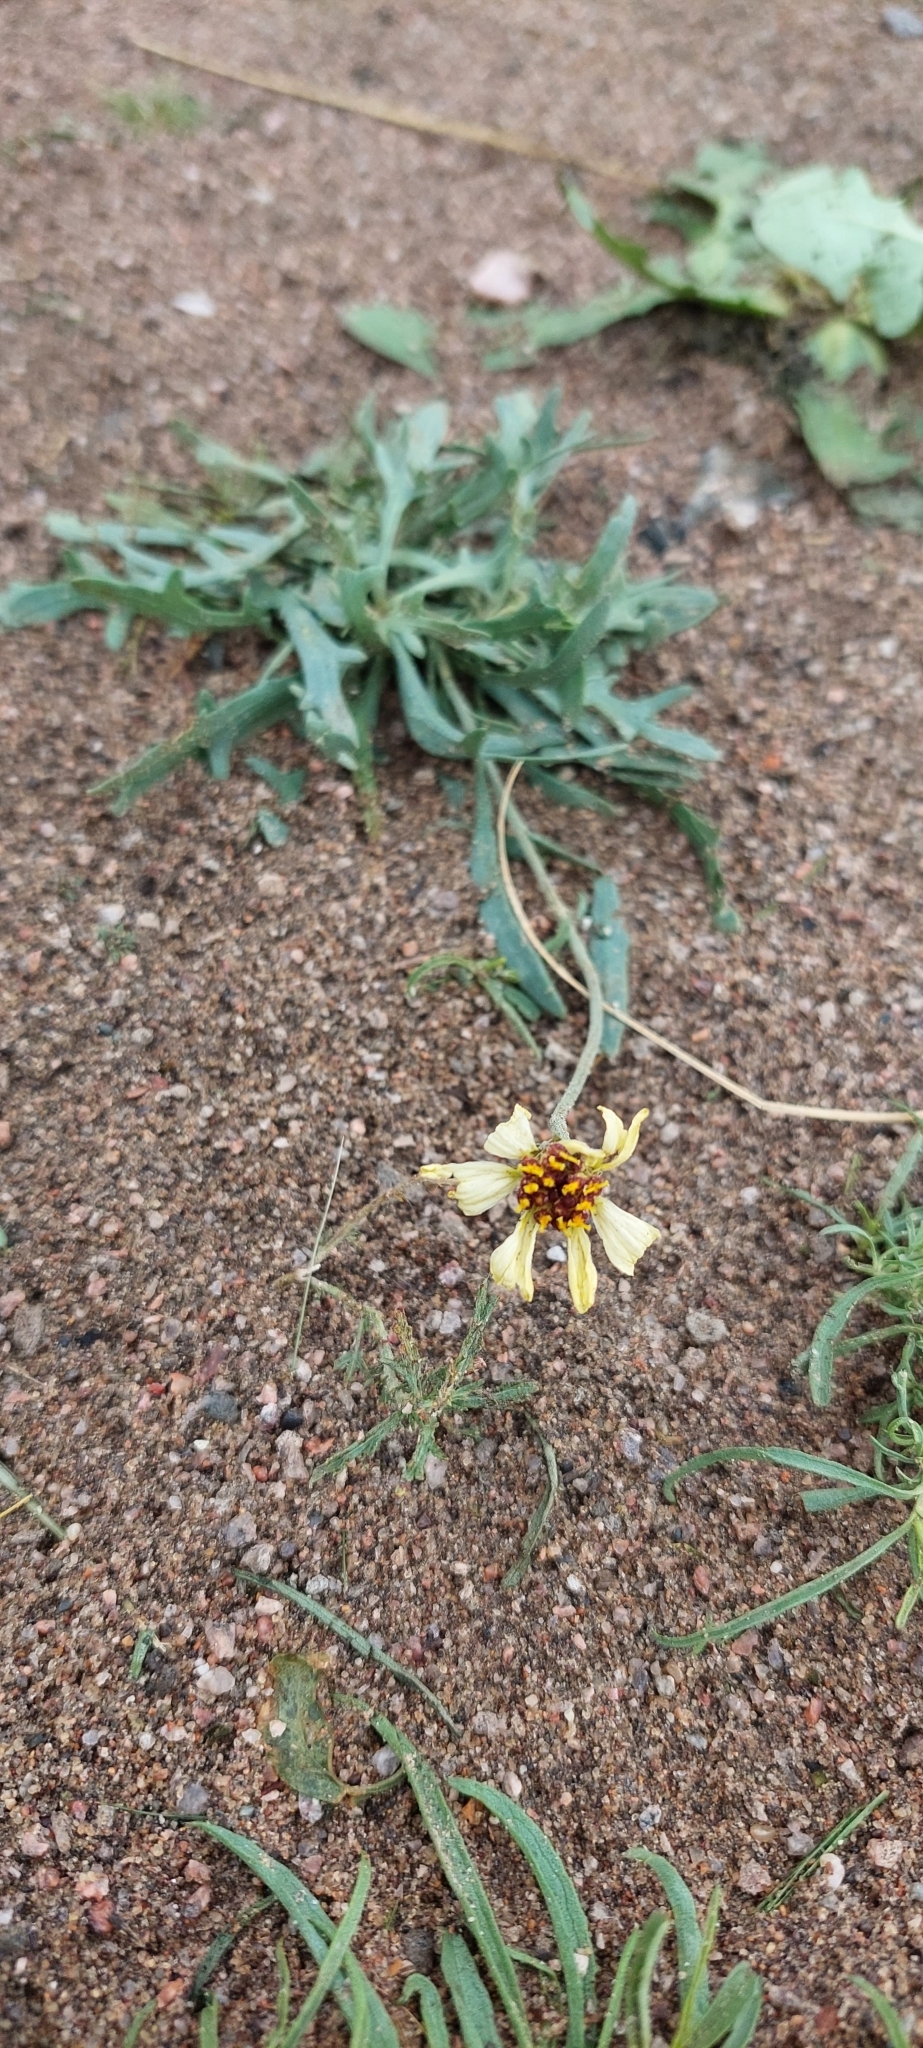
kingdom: Plantae
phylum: Tracheophyta
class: Magnoliopsida
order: Asterales
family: Asteraceae
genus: Helenium
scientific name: Helenium uniflorum
